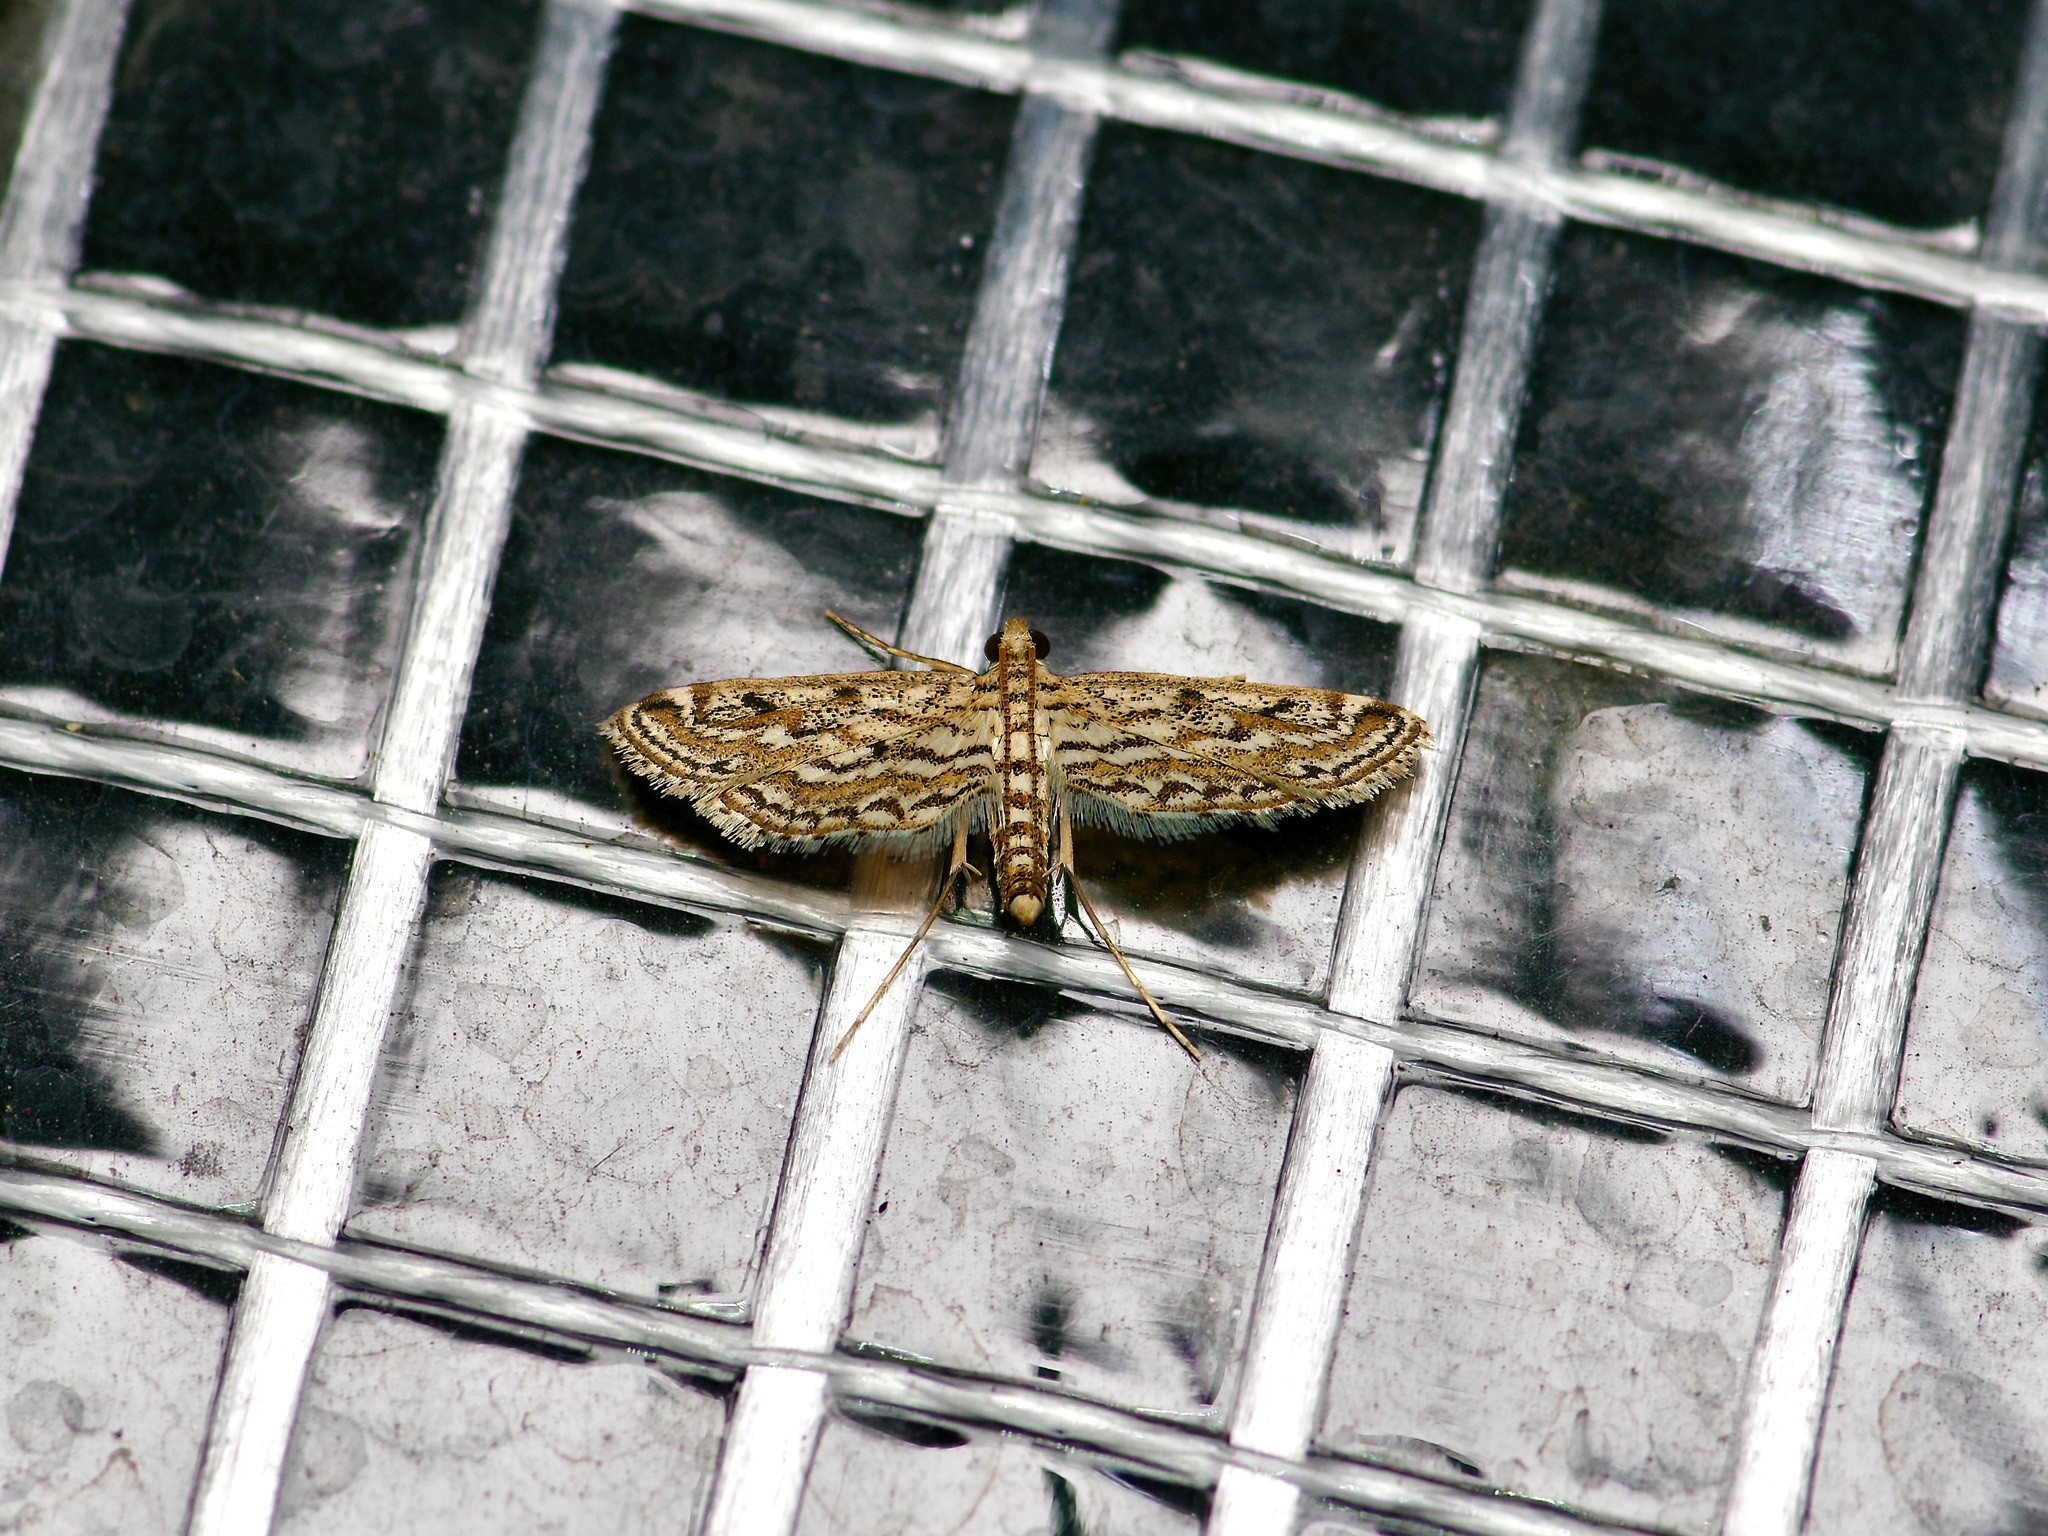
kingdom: Animalia
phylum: Arthropoda
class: Insecta
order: Lepidoptera
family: Crambidae
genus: Parapoynx
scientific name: Parapoynx allionealis
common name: Bladderwort casemaker
